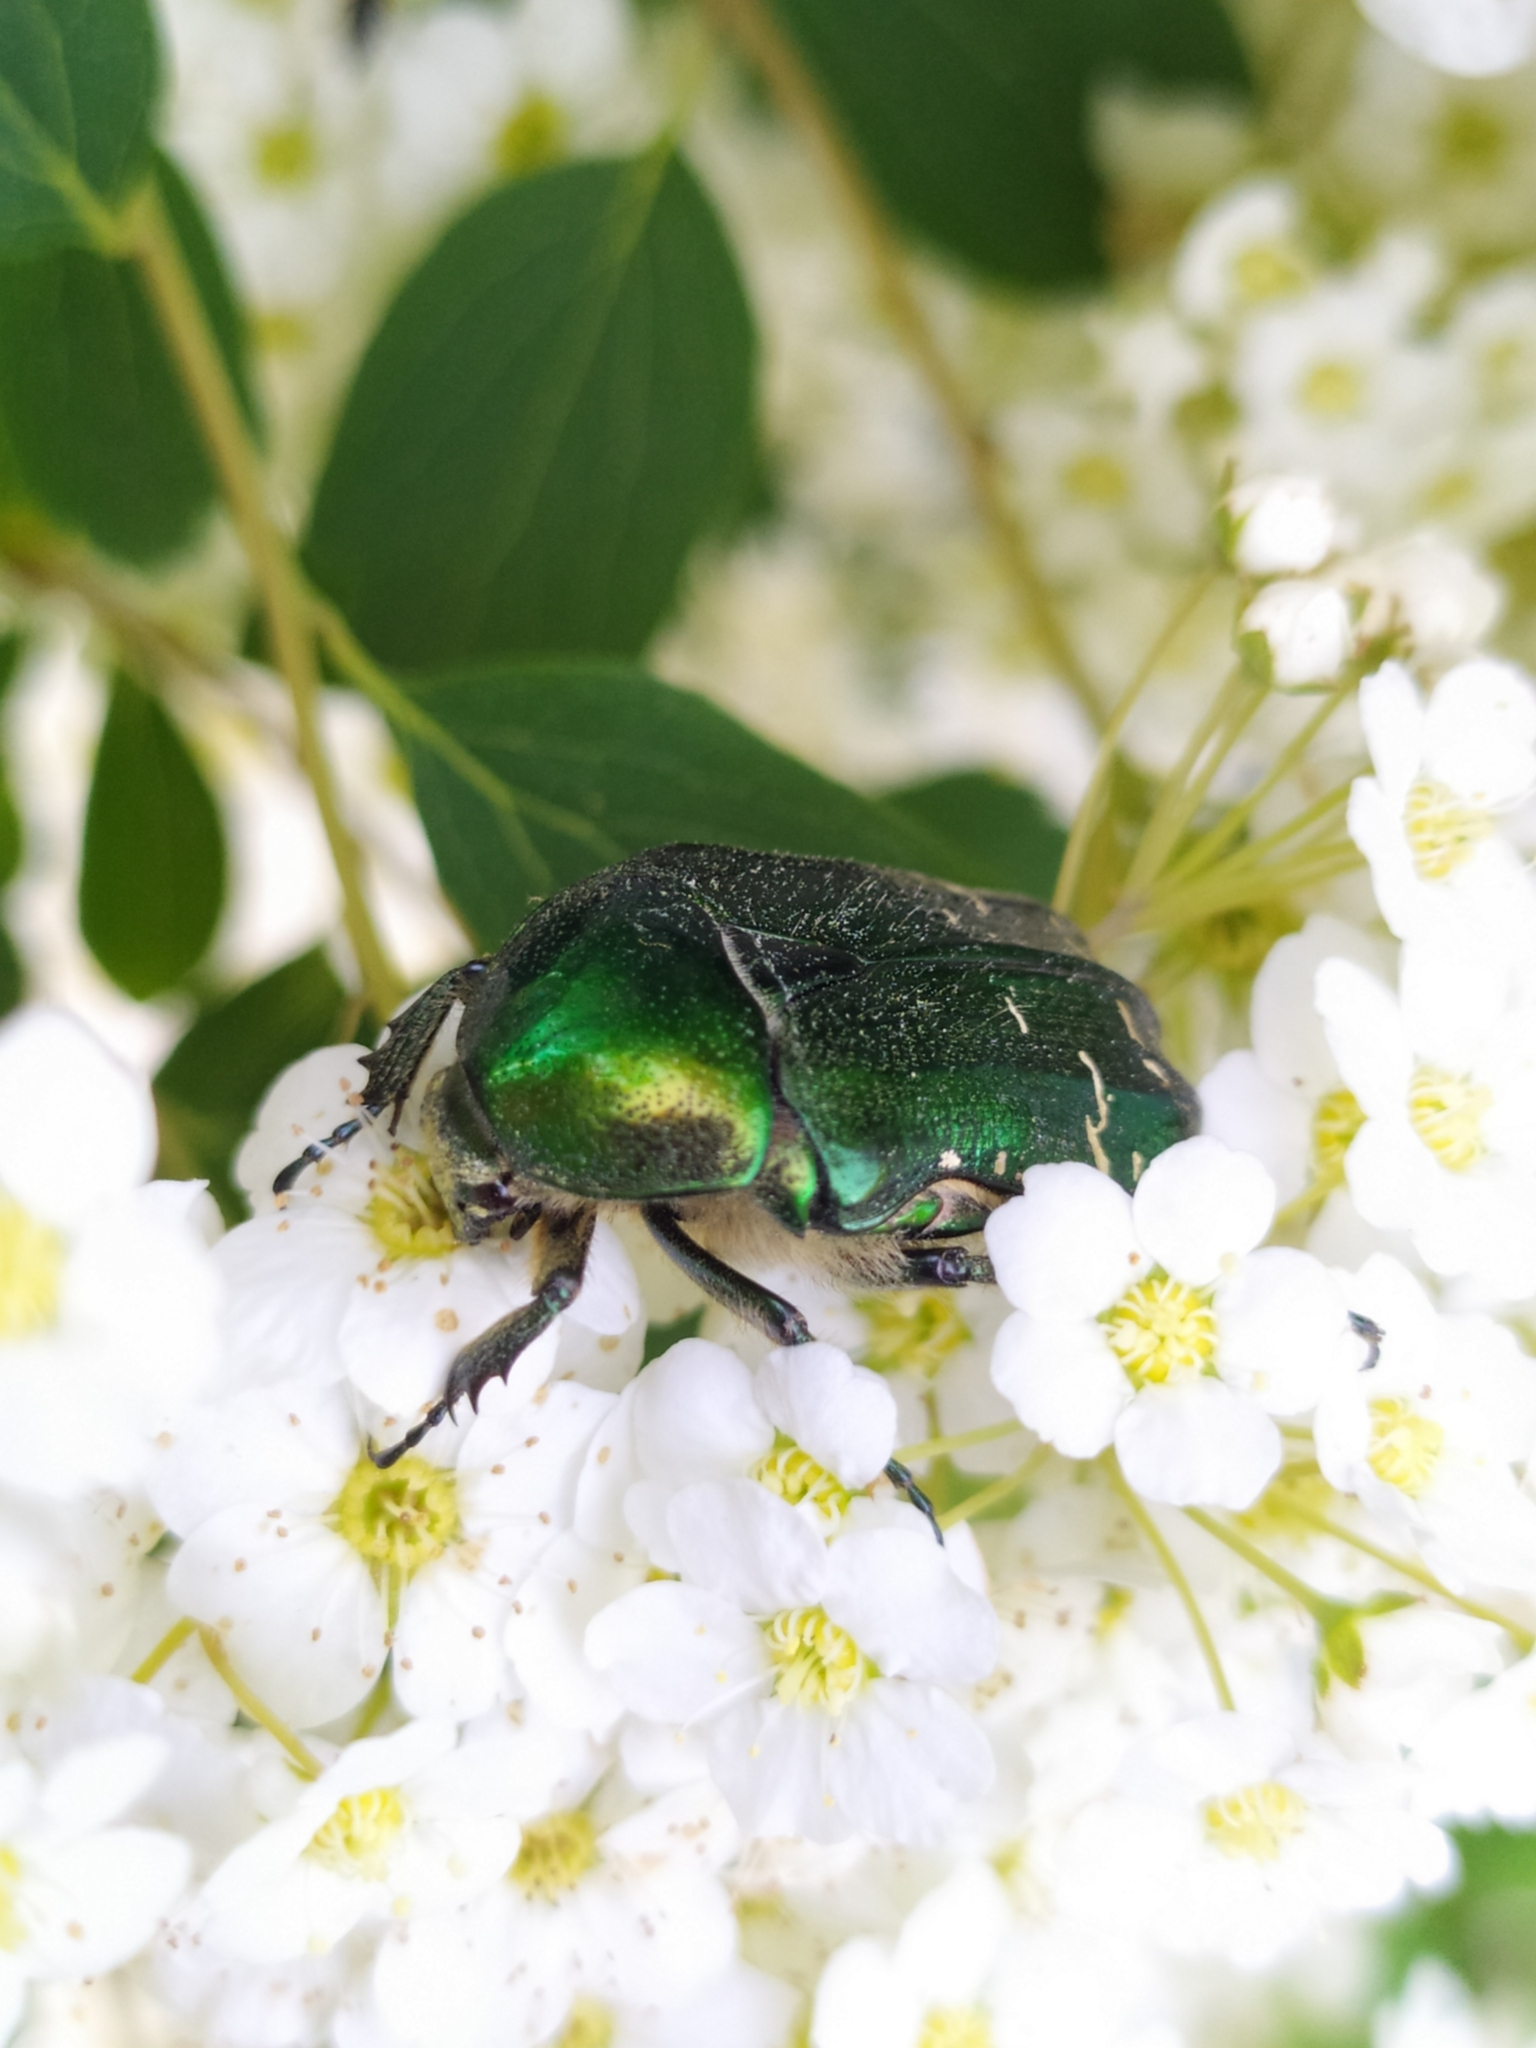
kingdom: Animalia
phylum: Arthropoda
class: Insecta
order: Coleoptera
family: Scarabaeidae
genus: Cetonia
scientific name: Cetonia aurata
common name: Rose chafer
